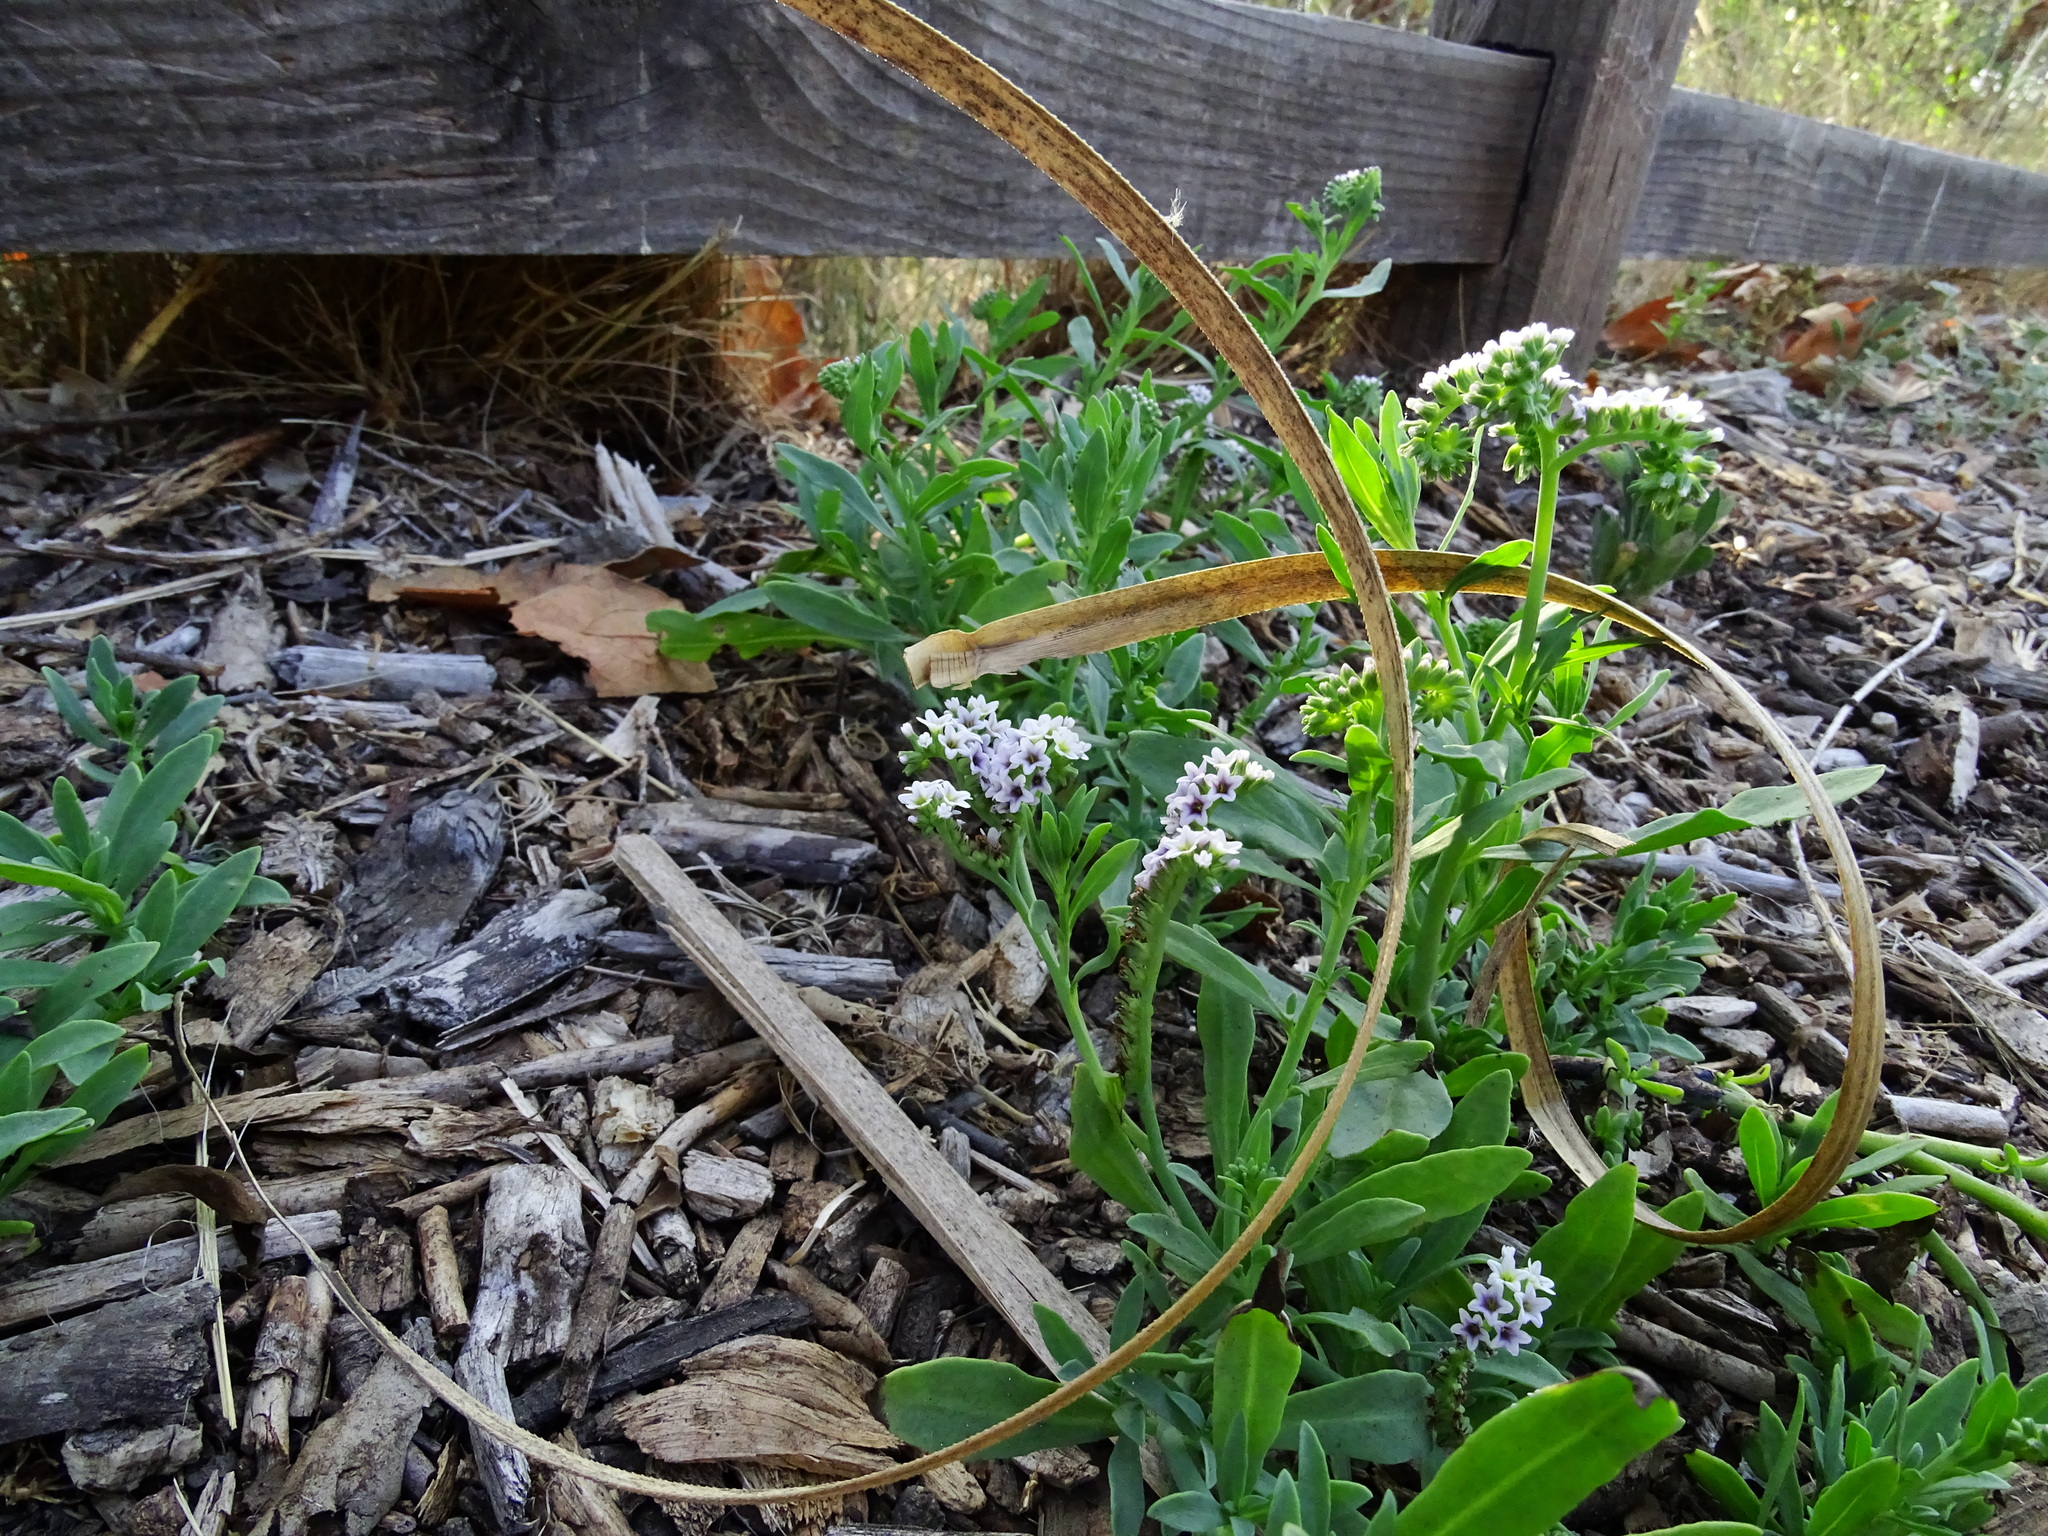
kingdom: Plantae
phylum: Tracheophyta
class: Magnoliopsida
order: Boraginales
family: Heliotropiaceae
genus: Heliotropium
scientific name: Heliotropium curassavicum
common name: Seaside heliotrope
